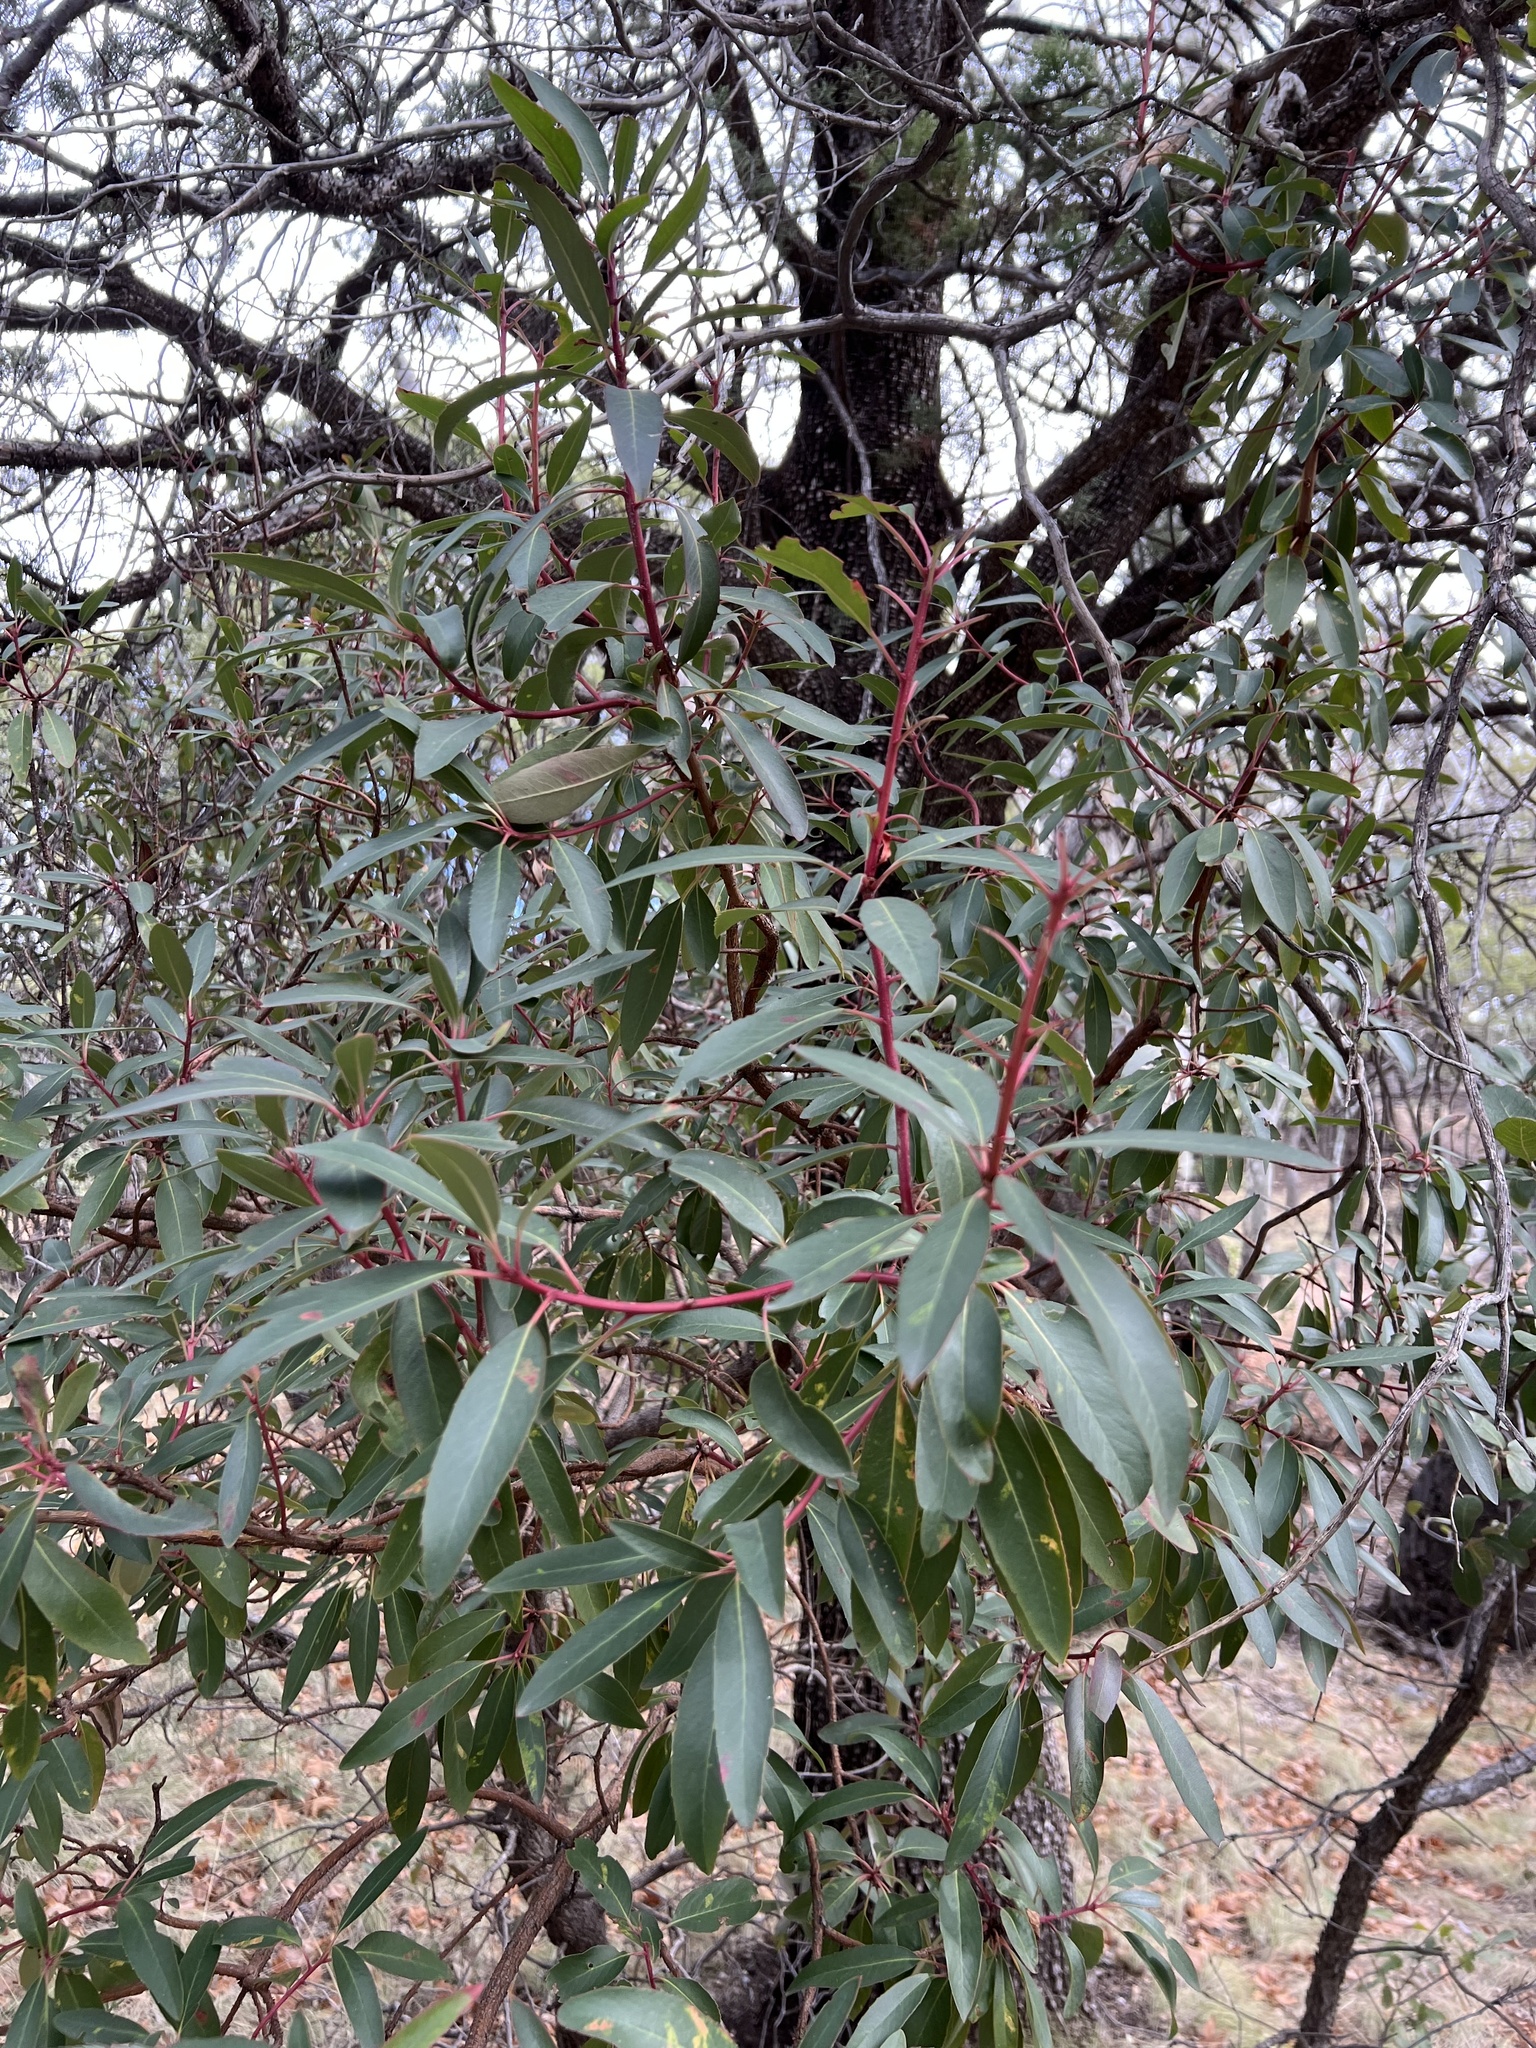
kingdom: Plantae
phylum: Tracheophyta
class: Magnoliopsida
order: Ericales
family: Ericaceae
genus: Arbutus
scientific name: Arbutus arizonica
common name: Arizona madrone
